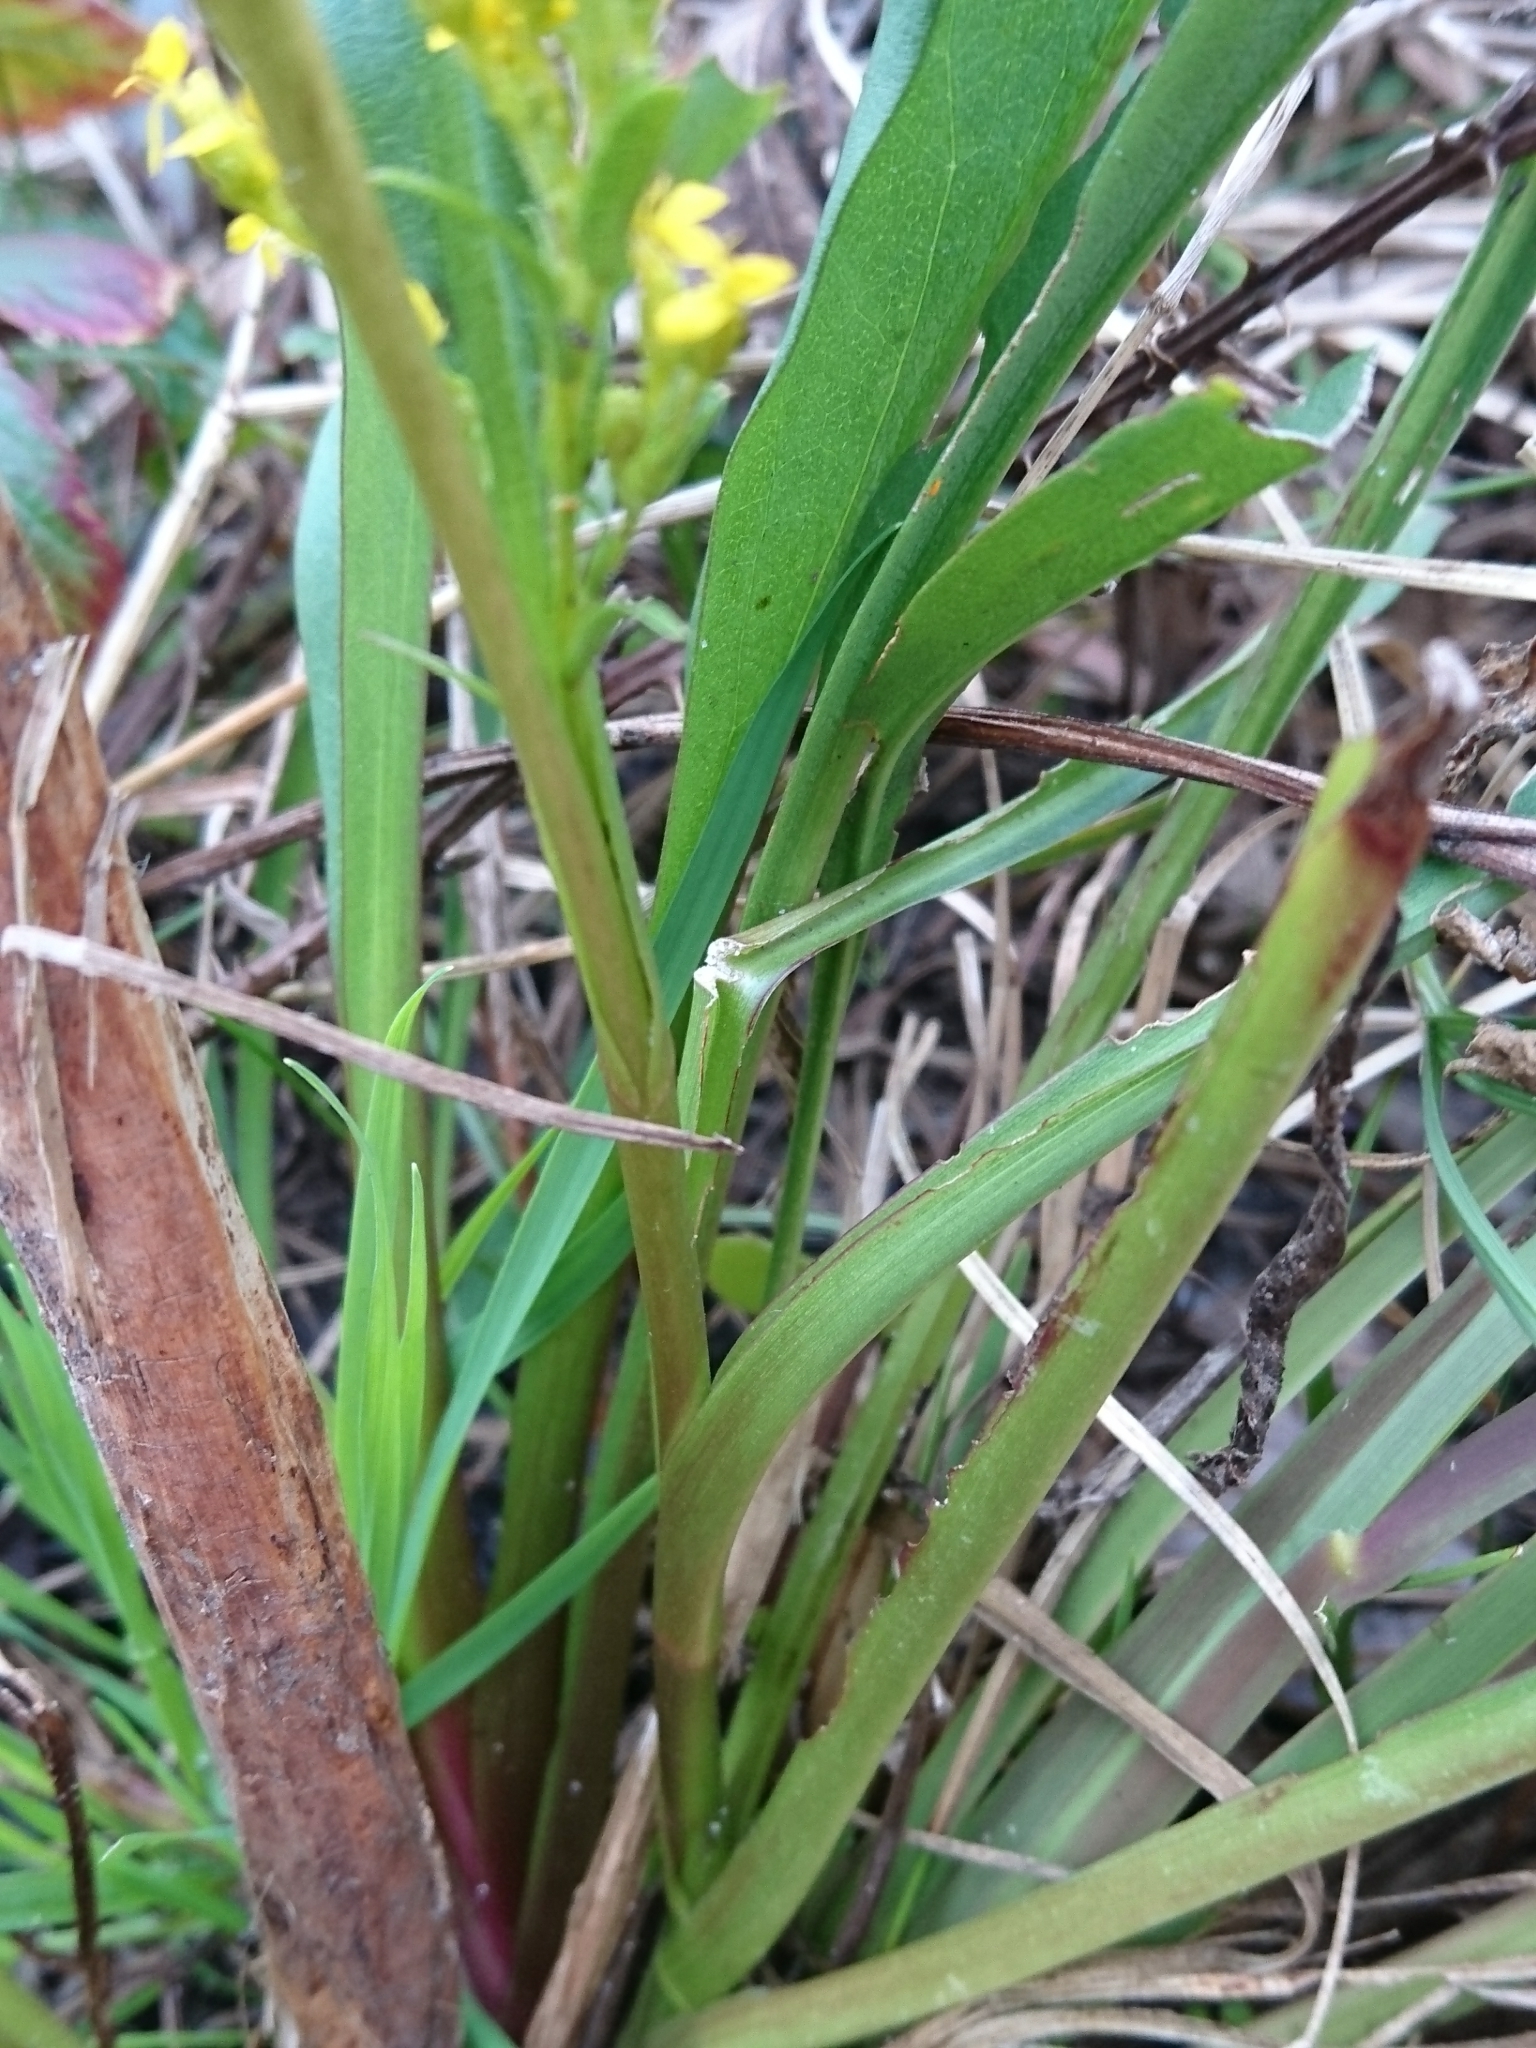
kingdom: Plantae
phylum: Tracheophyta
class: Magnoliopsida
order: Asterales
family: Asteraceae
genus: Solidago
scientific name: Solidago mexicana
